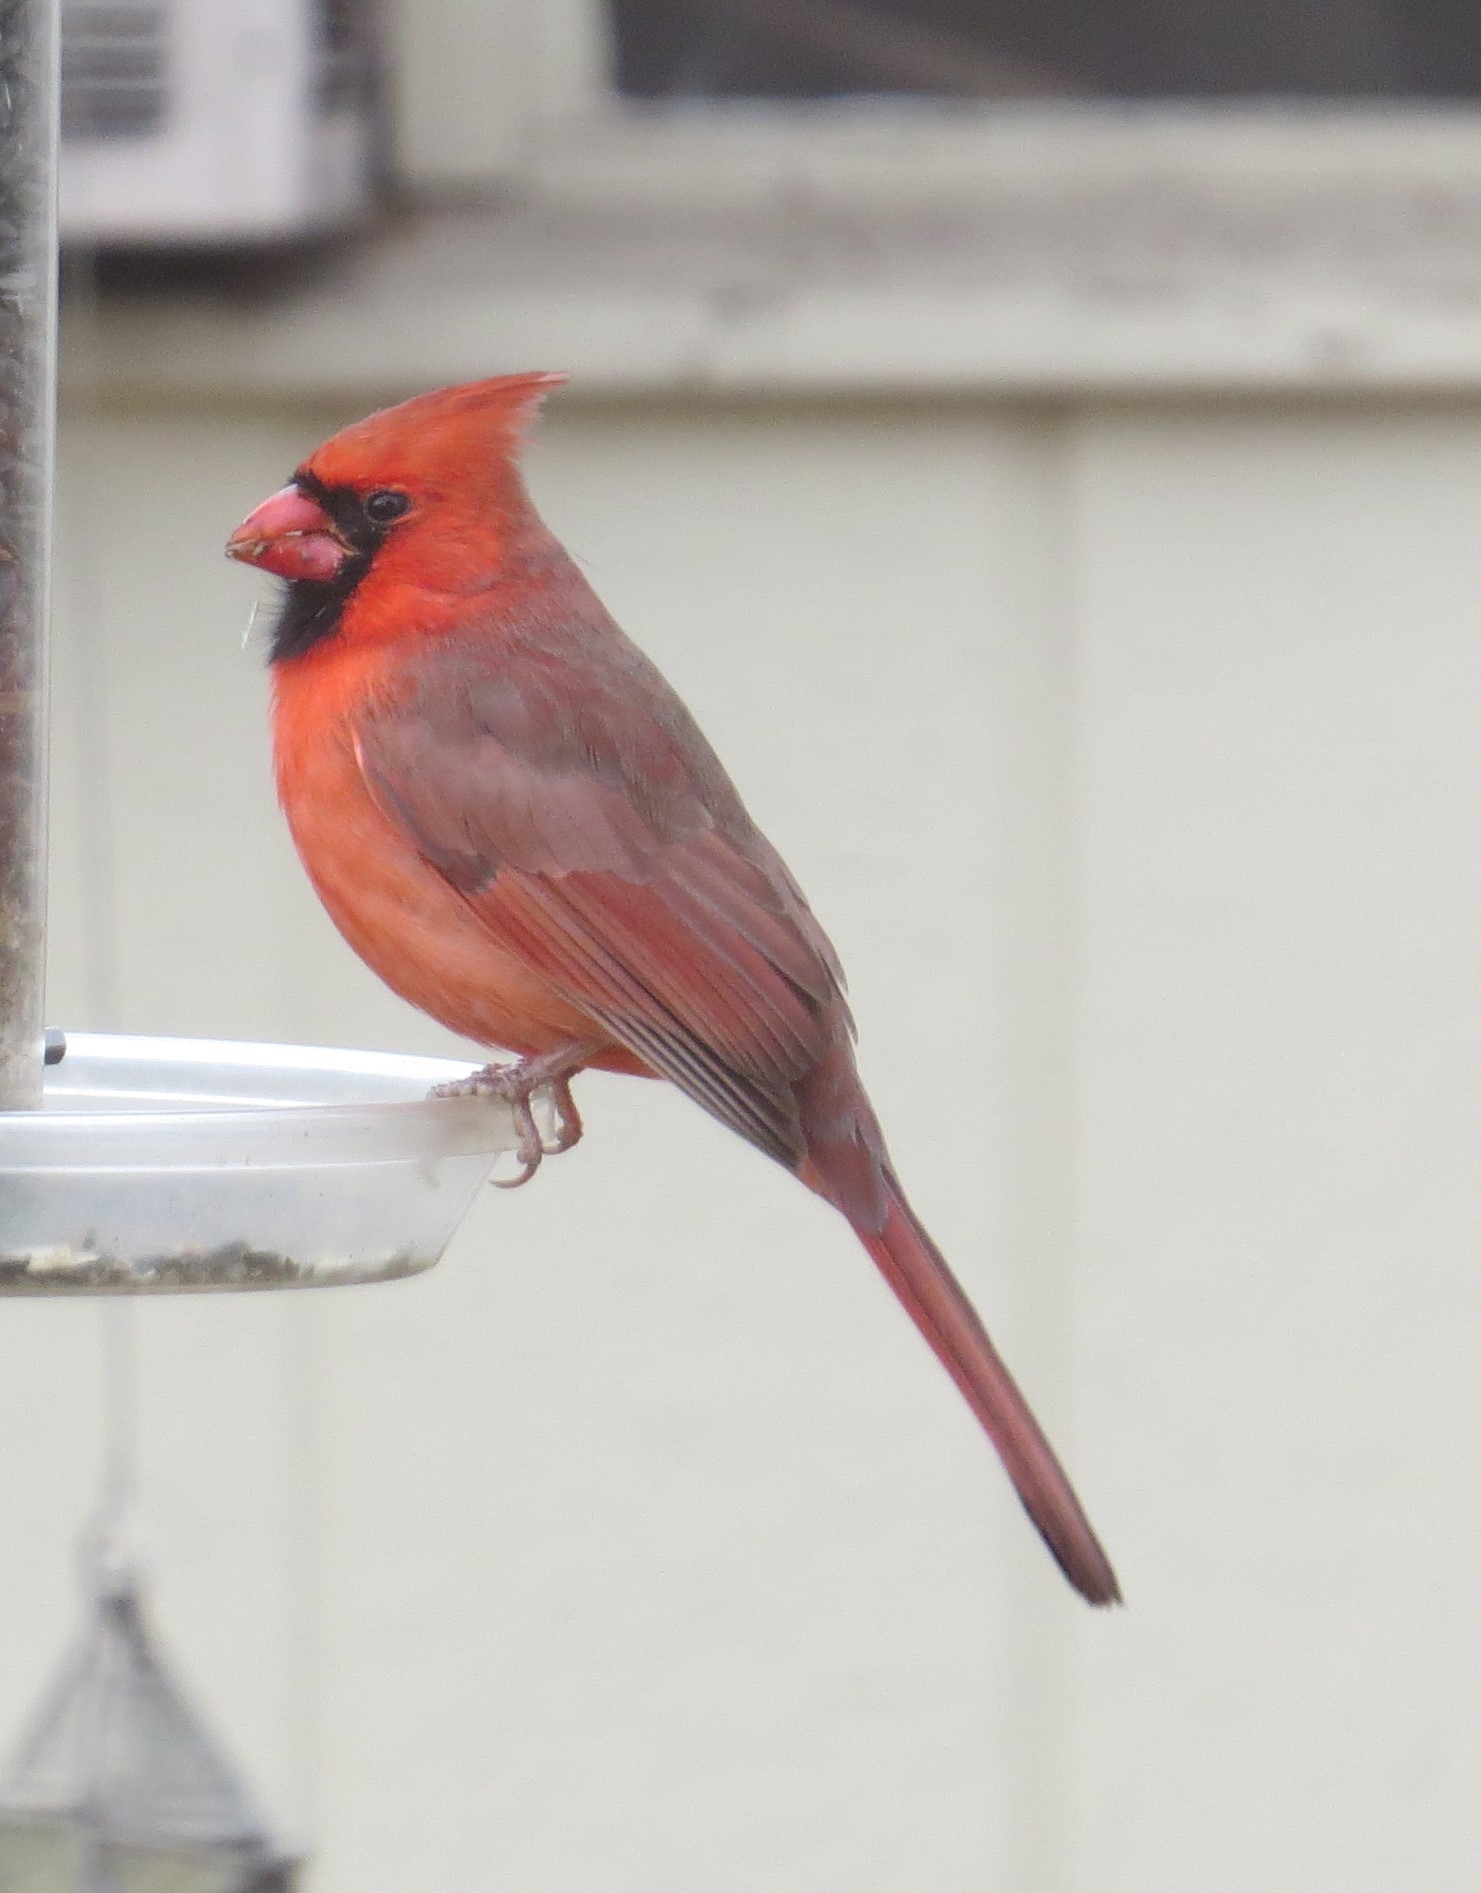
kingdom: Animalia
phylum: Chordata
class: Aves
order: Passeriformes
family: Cardinalidae
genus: Cardinalis
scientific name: Cardinalis cardinalis
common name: Northern cardinal
